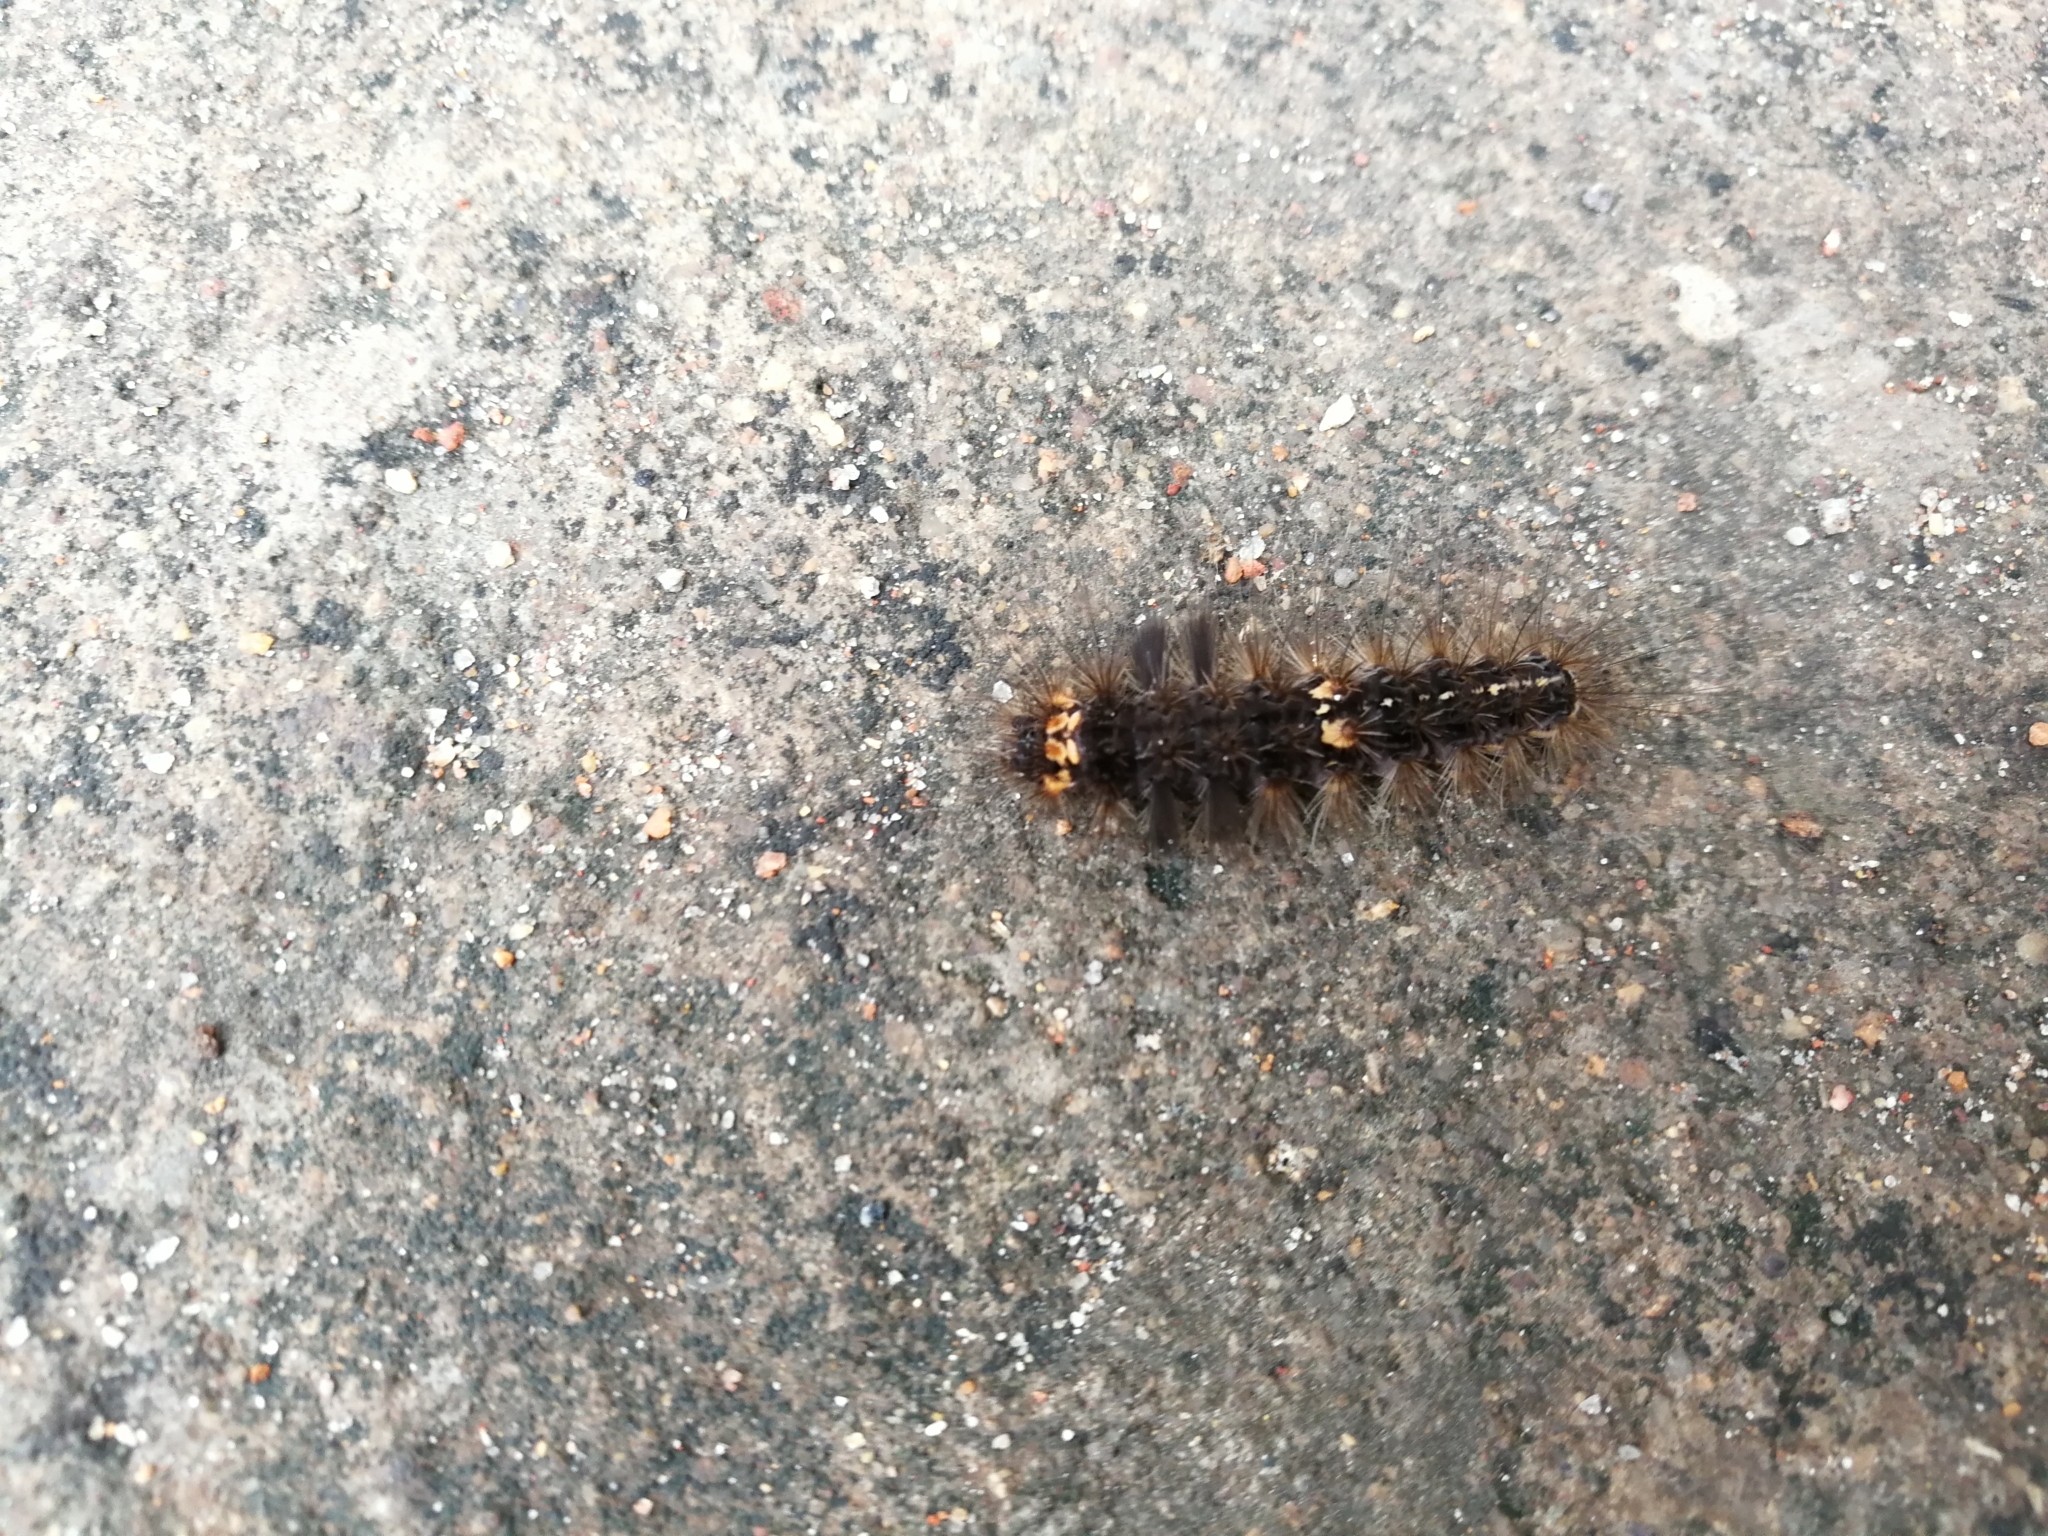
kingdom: Animalia
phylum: Arthropoda
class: Insecta
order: Lepidoptera
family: Erebidae
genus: Nepita
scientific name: Nepita conferta
